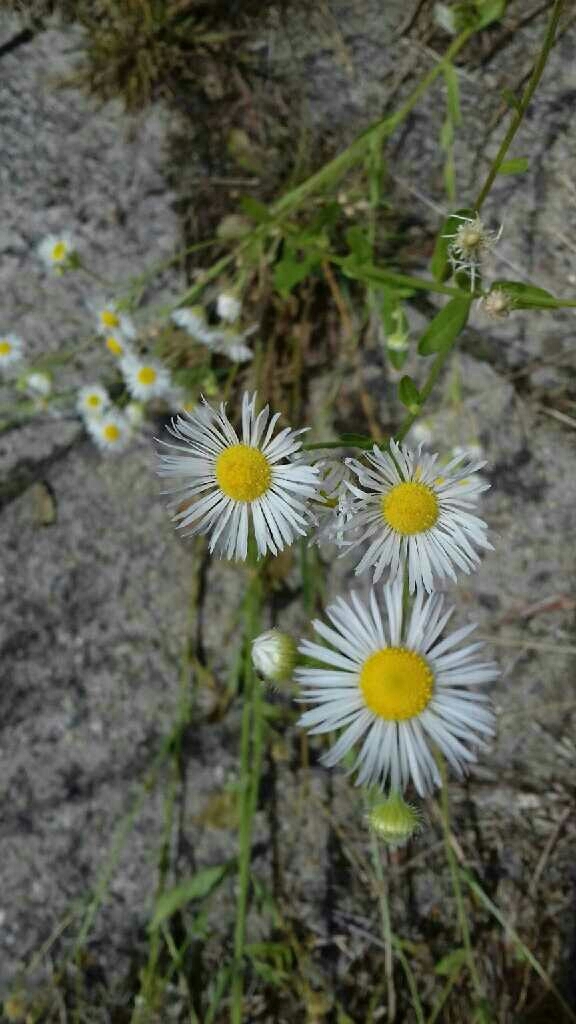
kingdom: Plantae
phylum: Tracheophyta
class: Magnoliopsida
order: Asterales
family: Asteraceae
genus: Erigeron
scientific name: Erigeron annuus
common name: Tall fleabane
